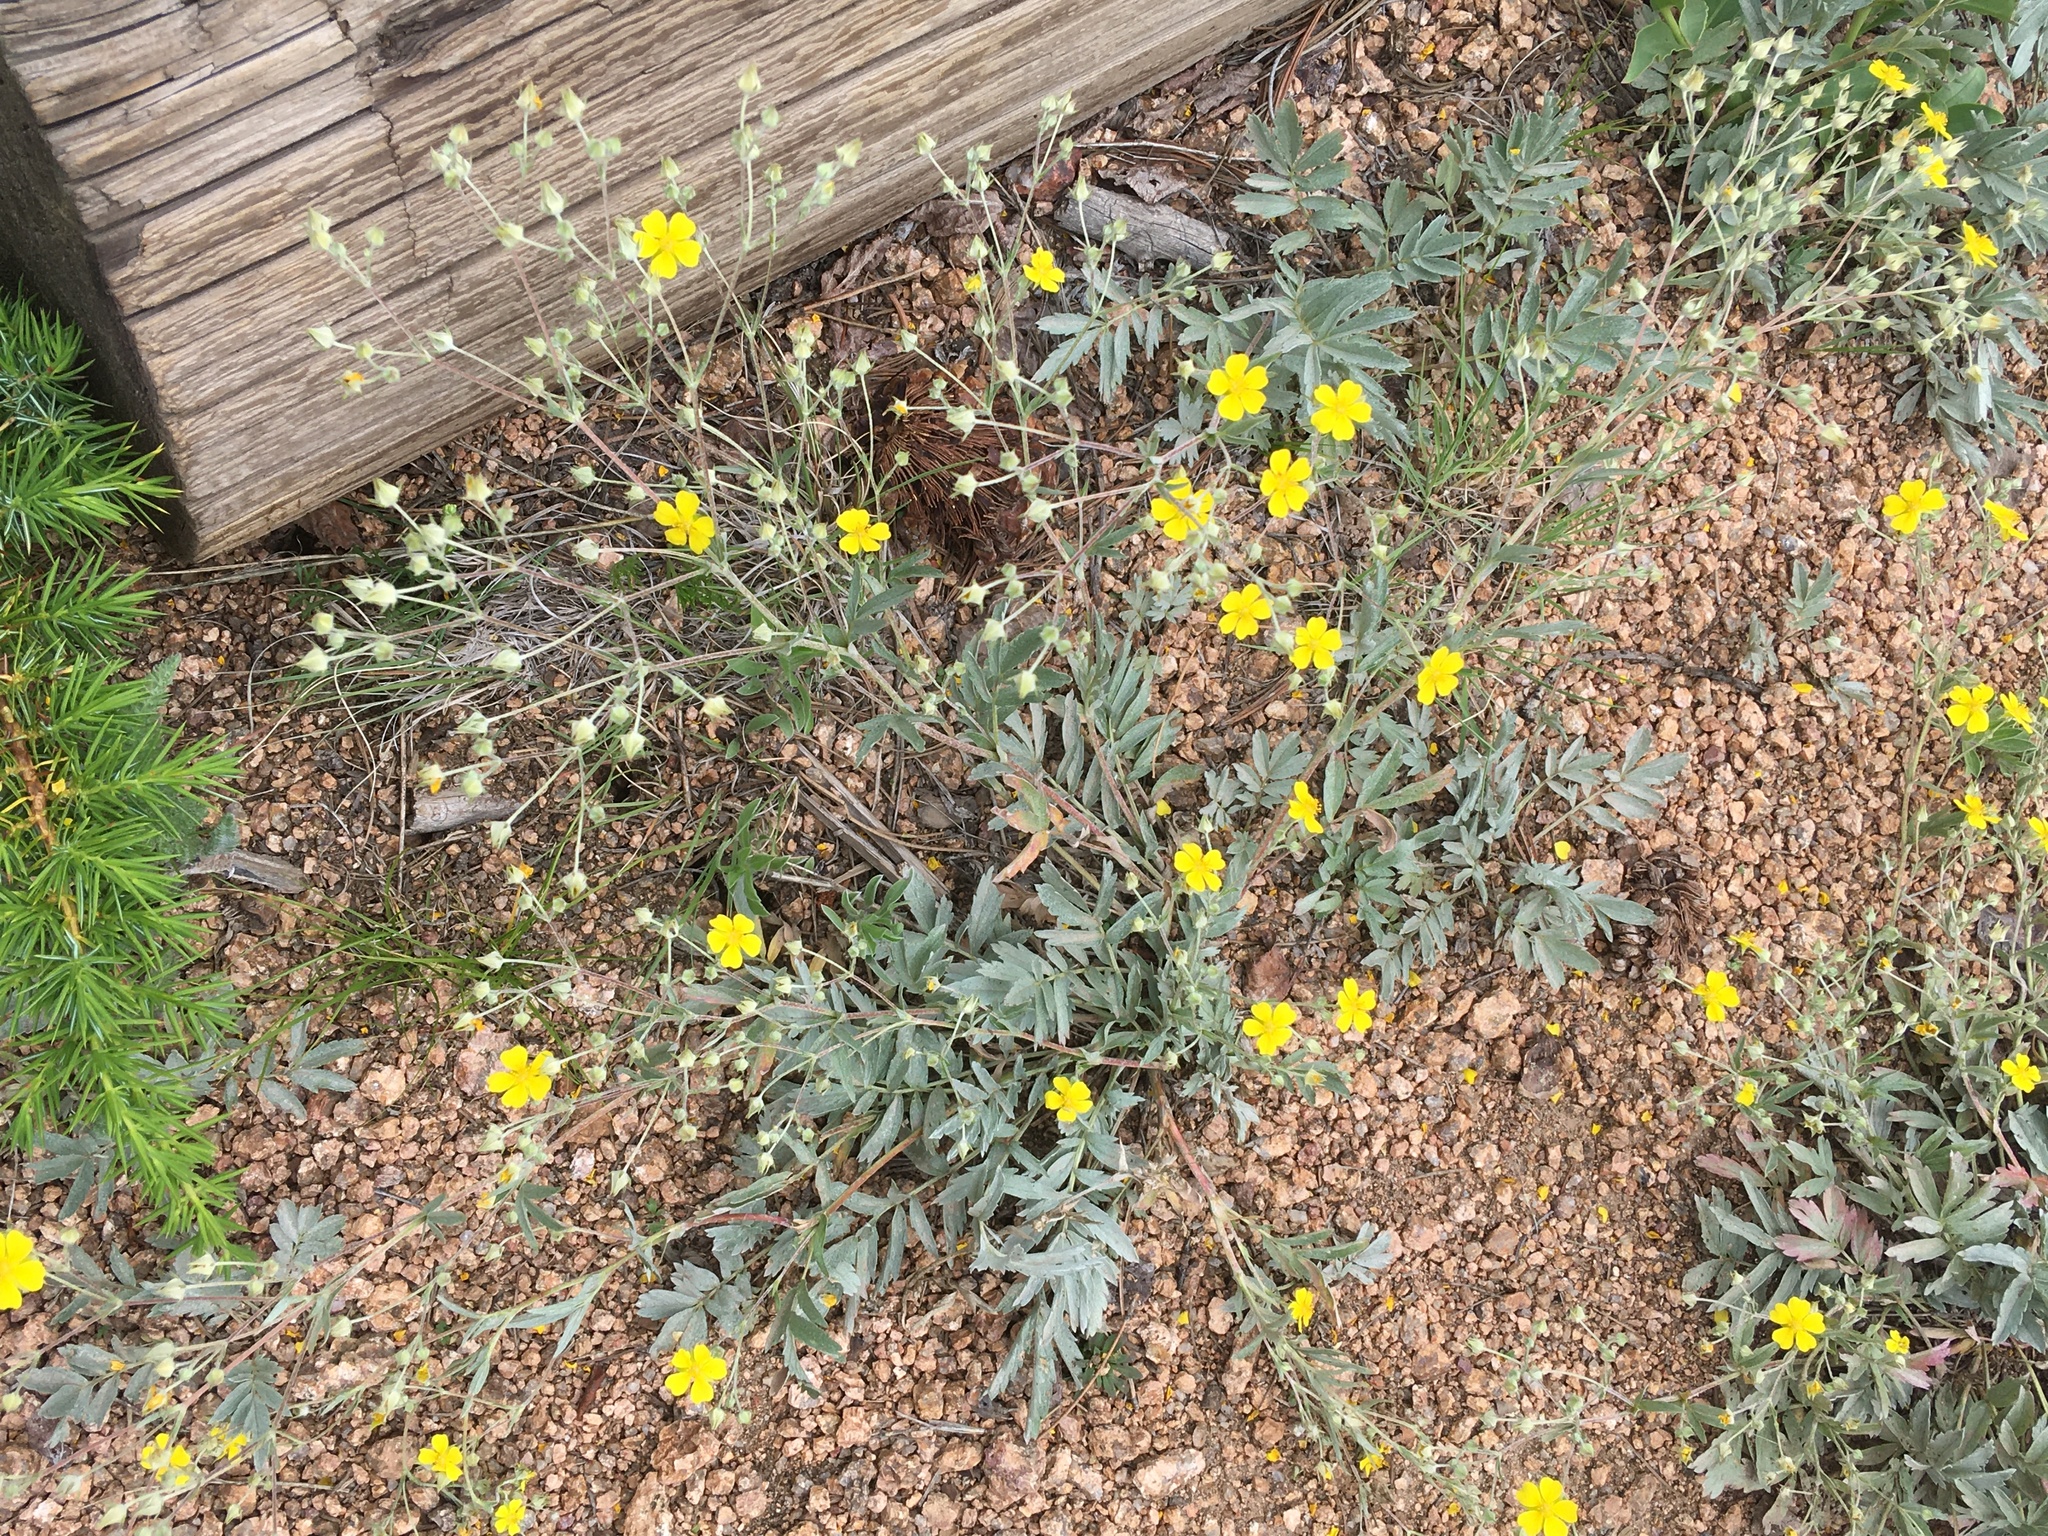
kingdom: Plantae
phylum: Tracheophyta
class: Magnoliopsida
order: Rosales
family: Rosaceae
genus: Potentilla
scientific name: Potentilla hippiana
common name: Woolly cinquefoil
